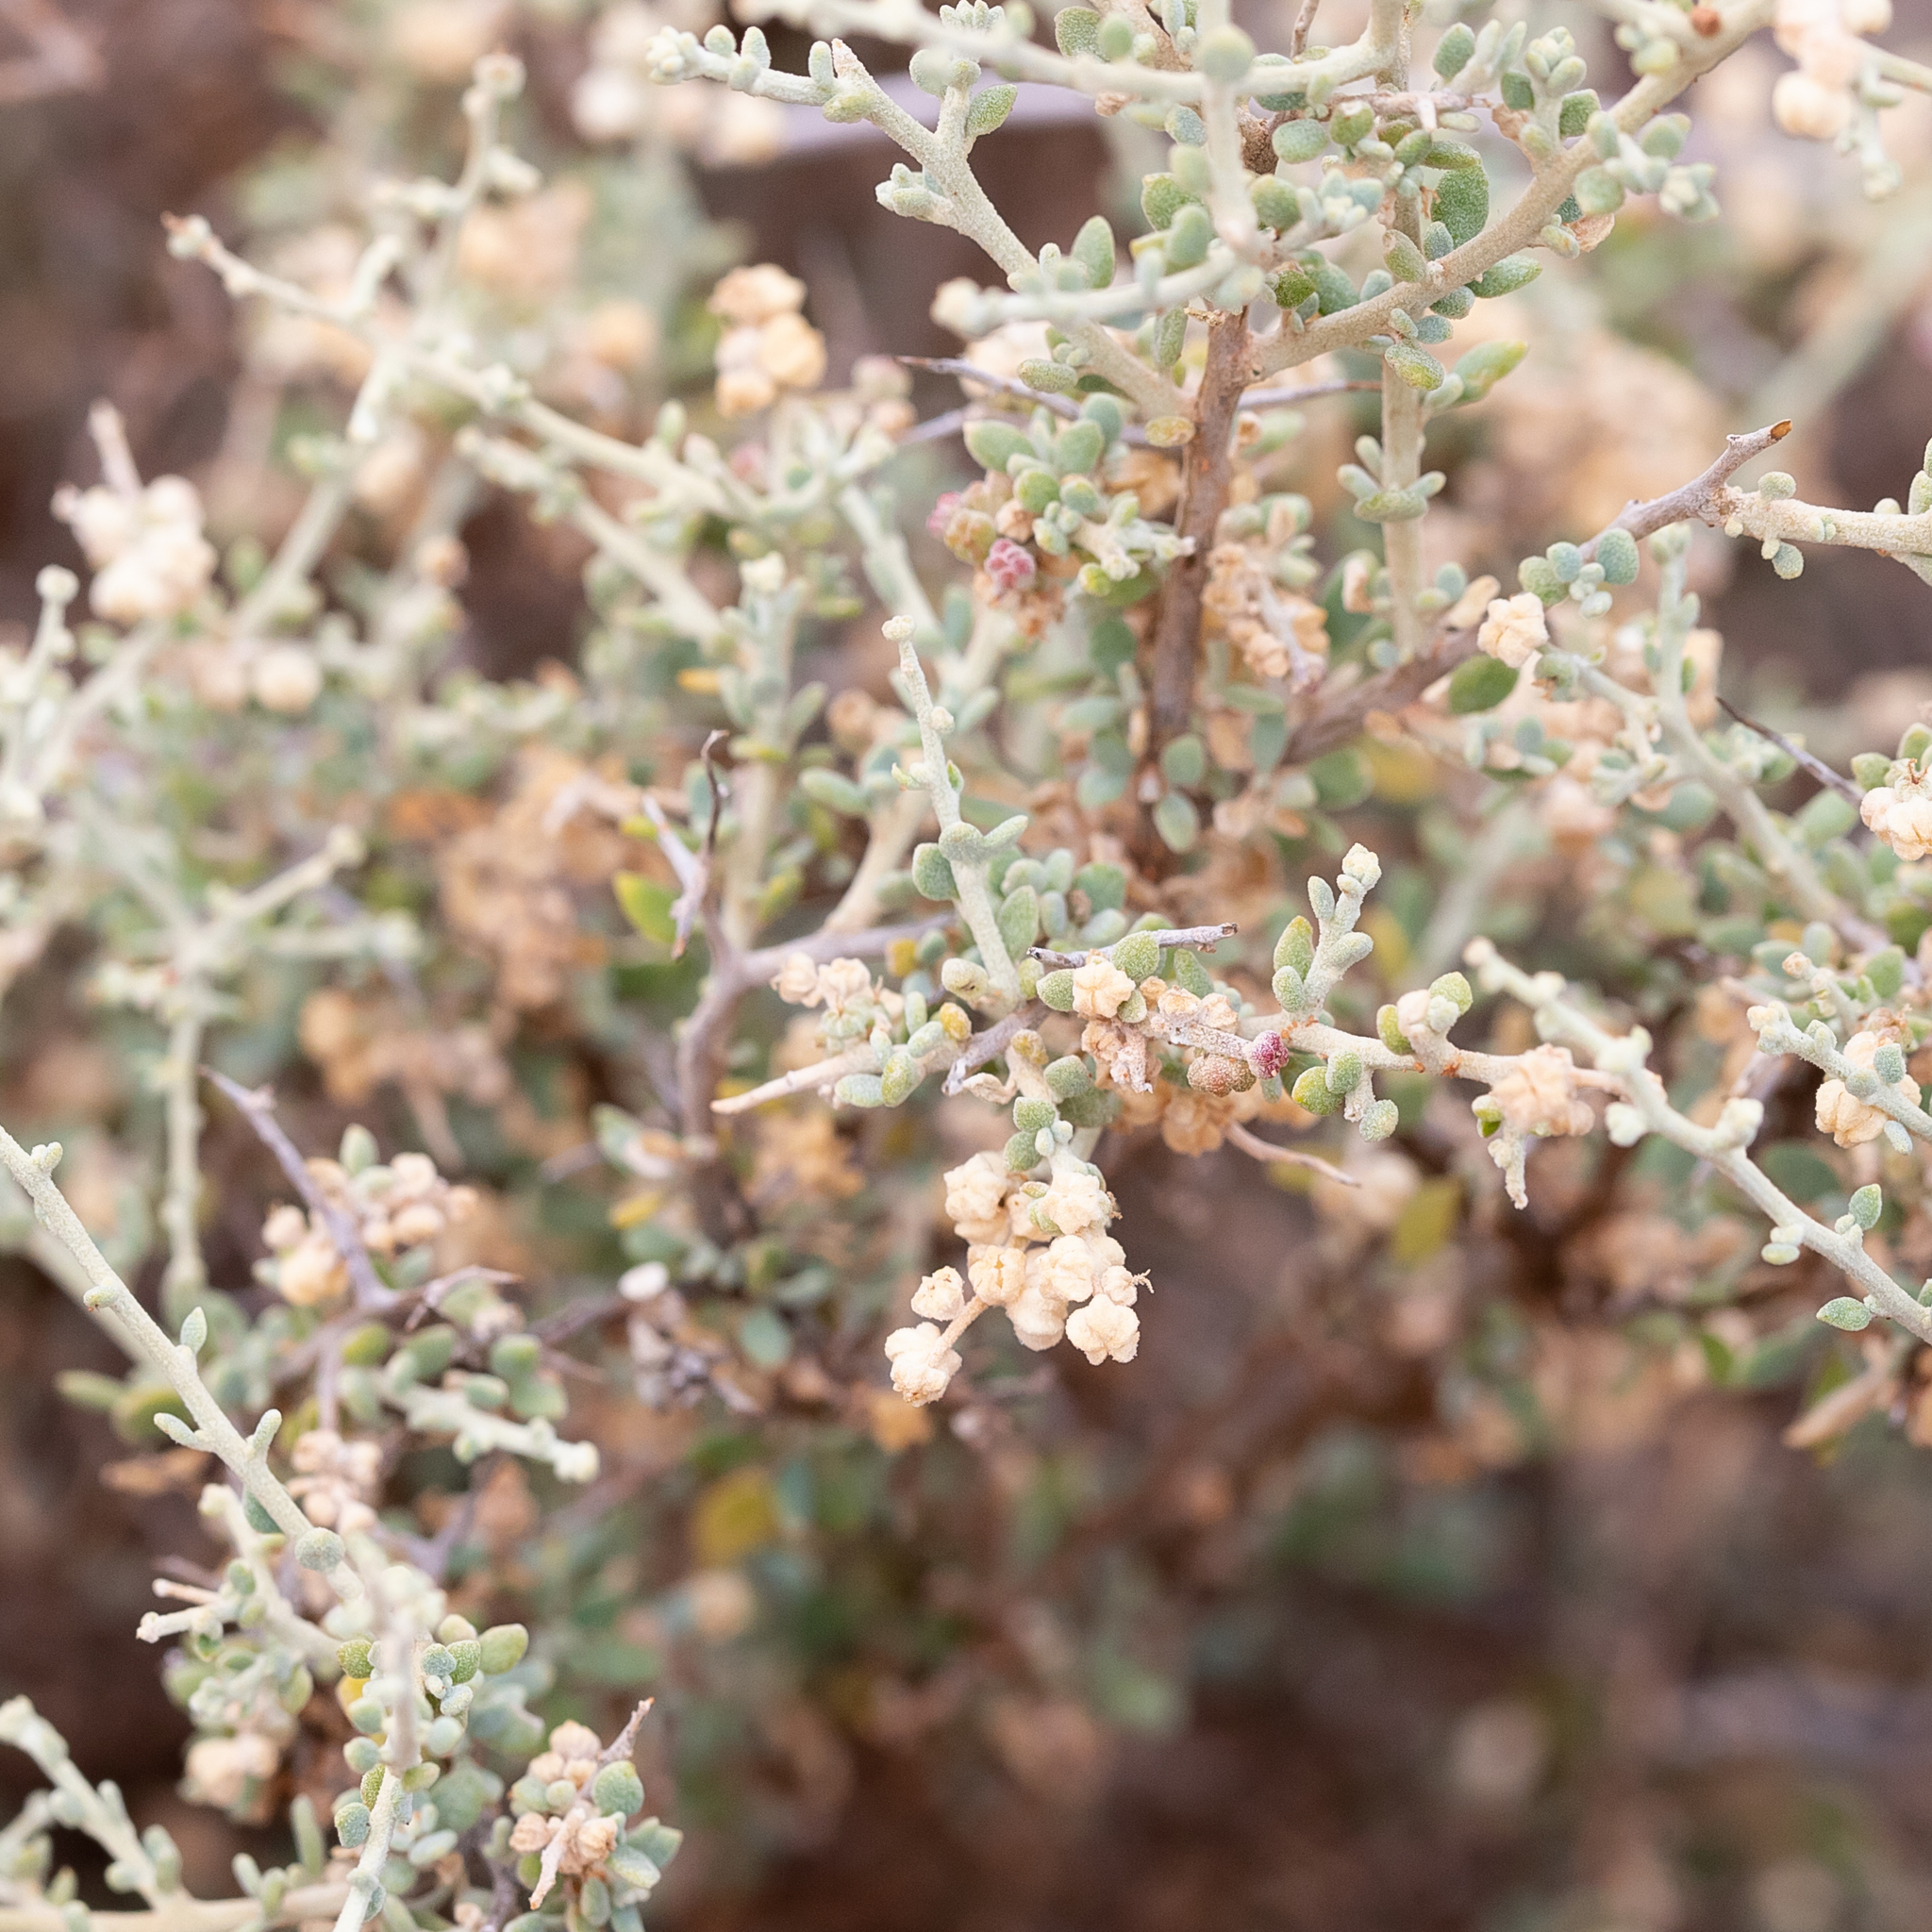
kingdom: Plantae
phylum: Tracheophyta
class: Magnoliopsida
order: Caryophyllales
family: Amaranthaceae
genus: Chenopodium
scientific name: Chenopodium ulicinum
